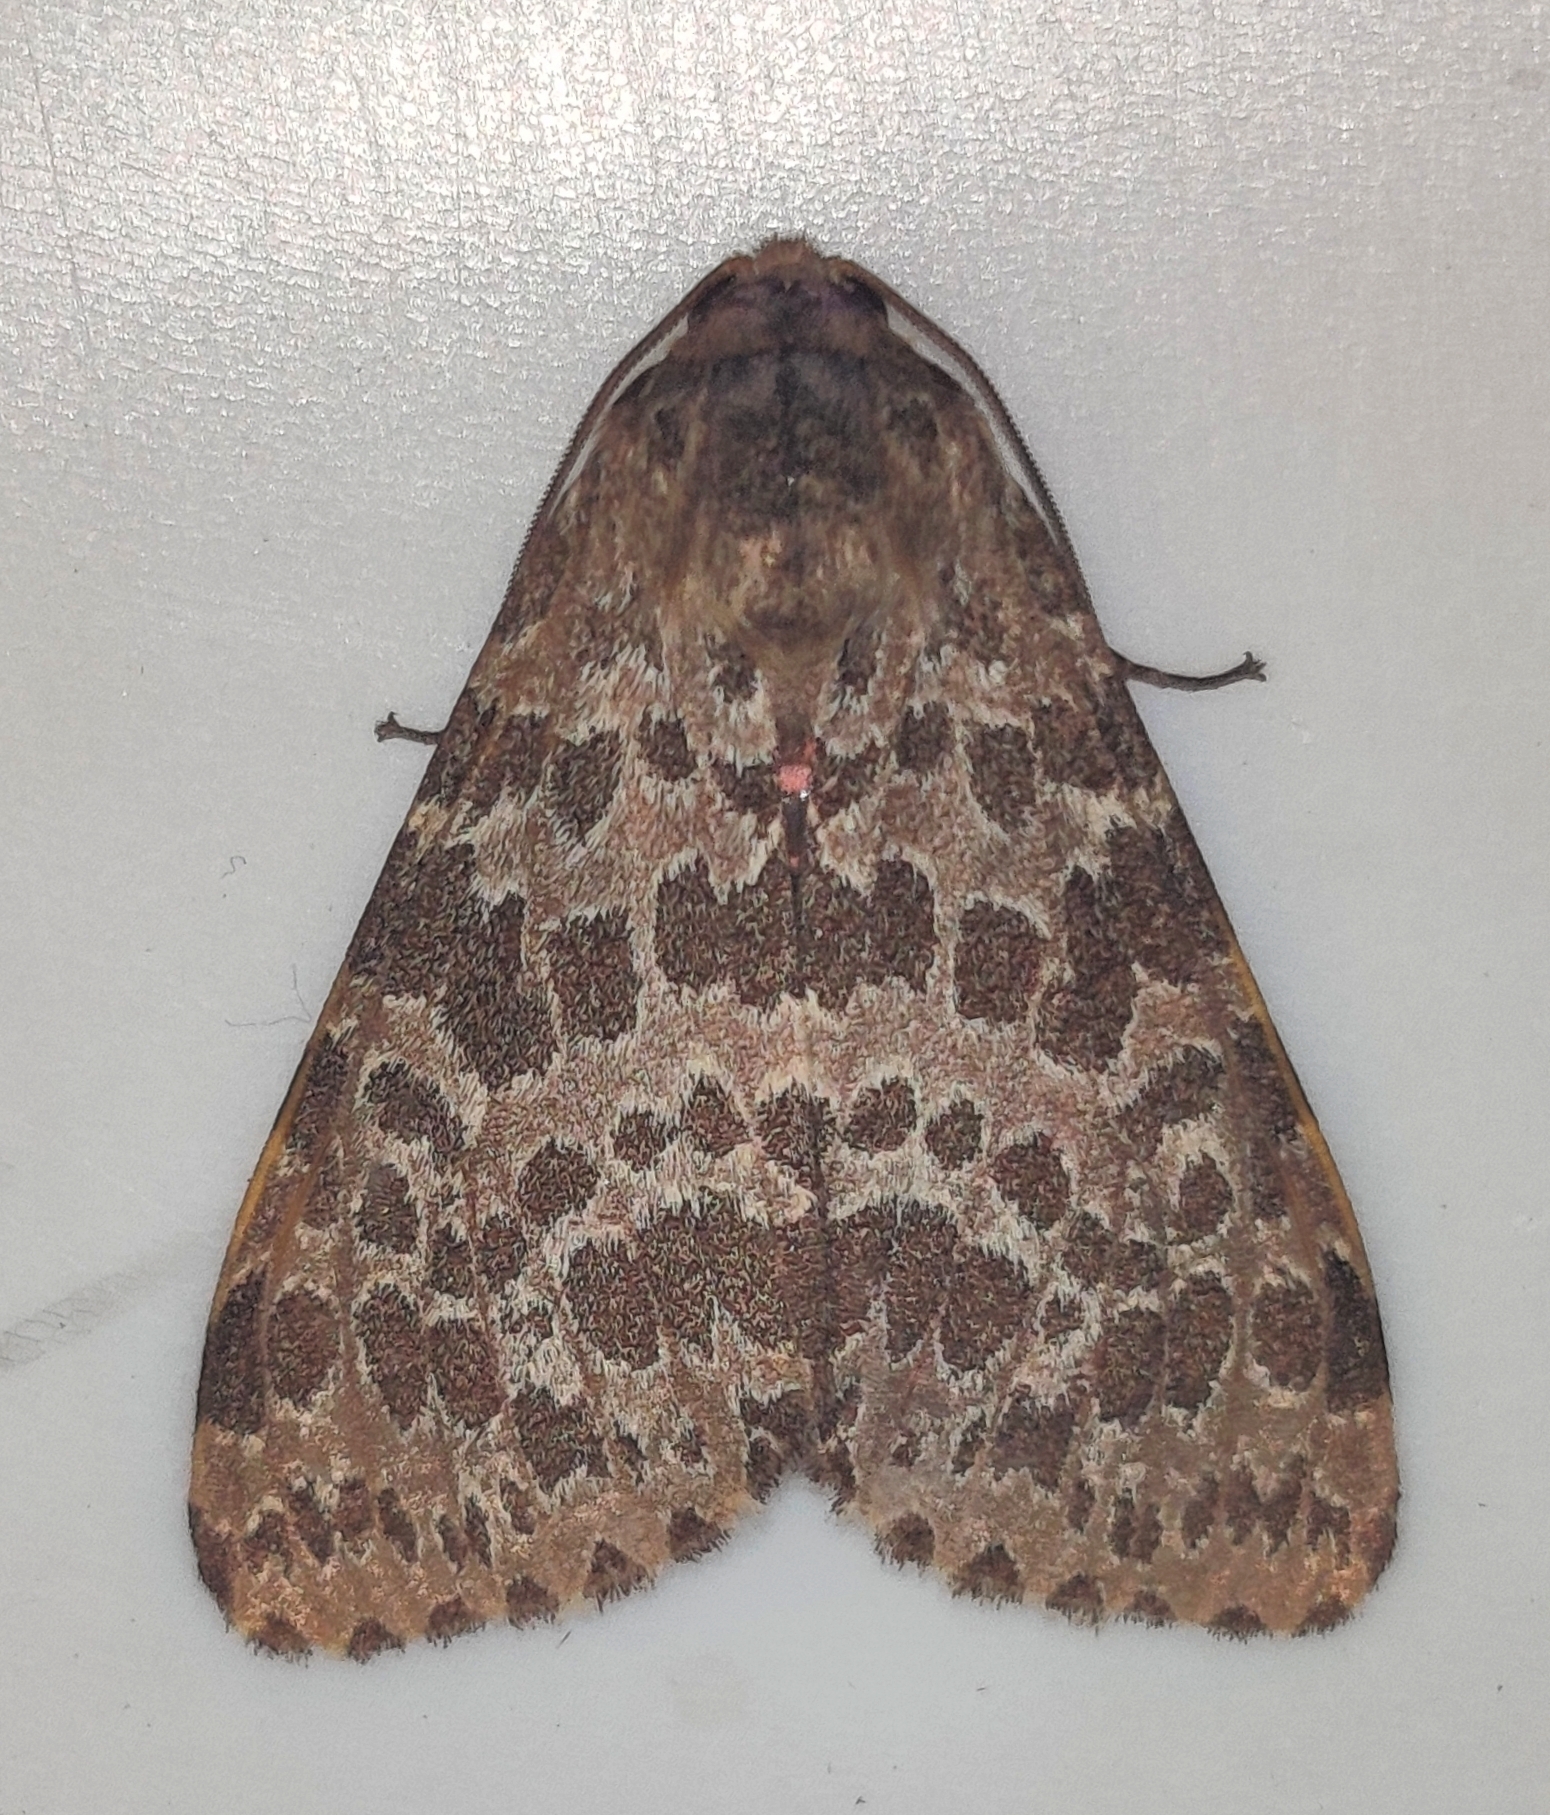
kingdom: Animalia
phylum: Arthropoda
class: Insecta
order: Lepidoptera
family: Erebidae
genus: Olepa
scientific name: Olepa ricini
